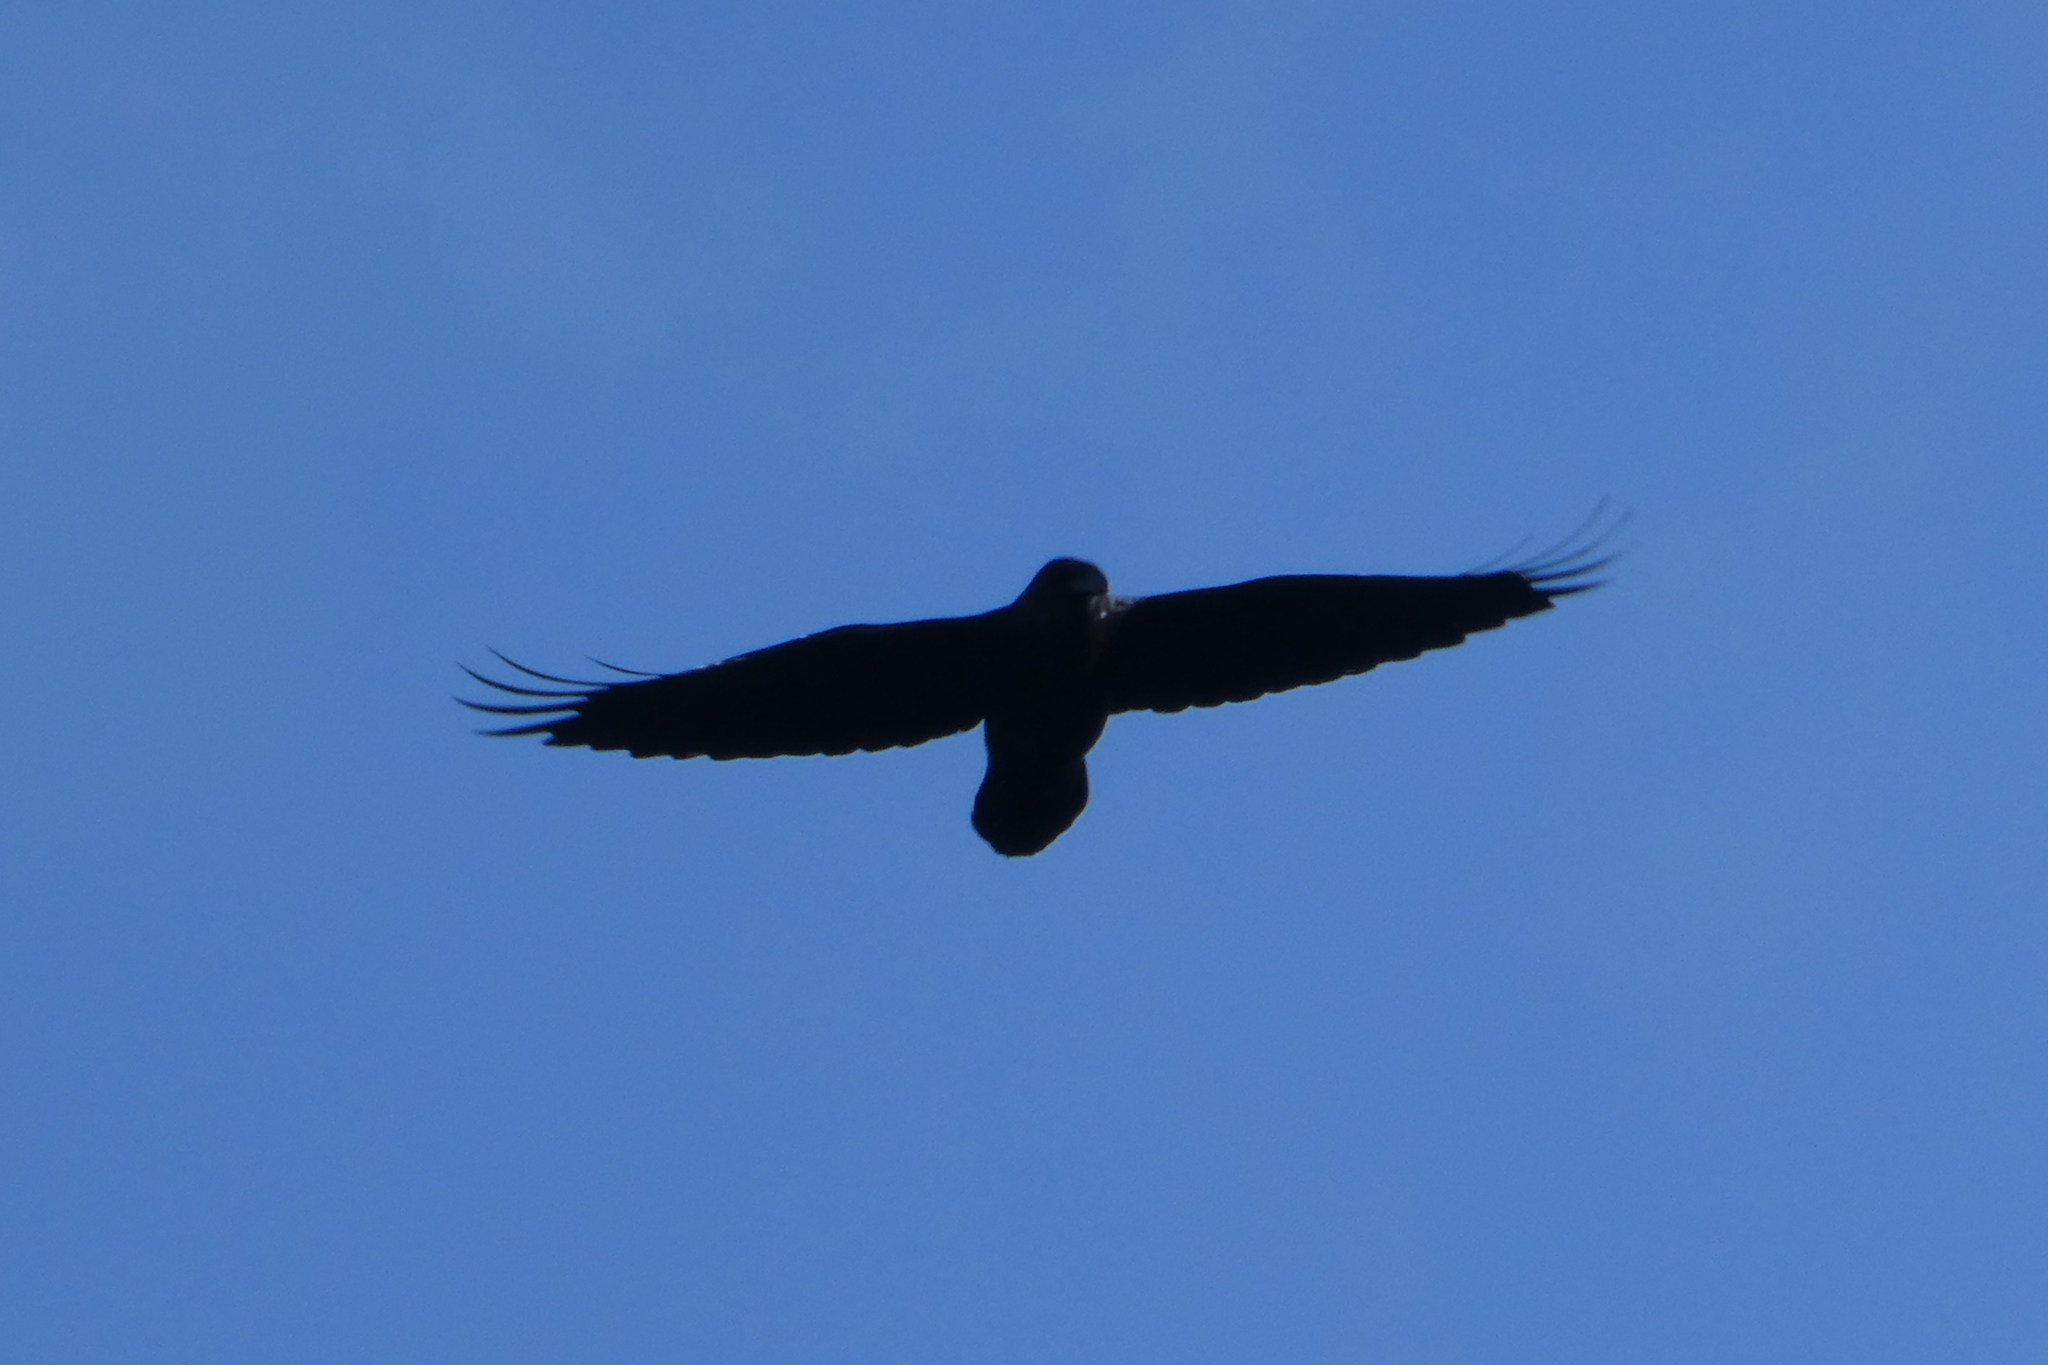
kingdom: Animalia
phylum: Chordata
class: Aves
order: Passeriformes
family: Corvidae
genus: Corvus
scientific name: Corvus corax
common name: Common raven
